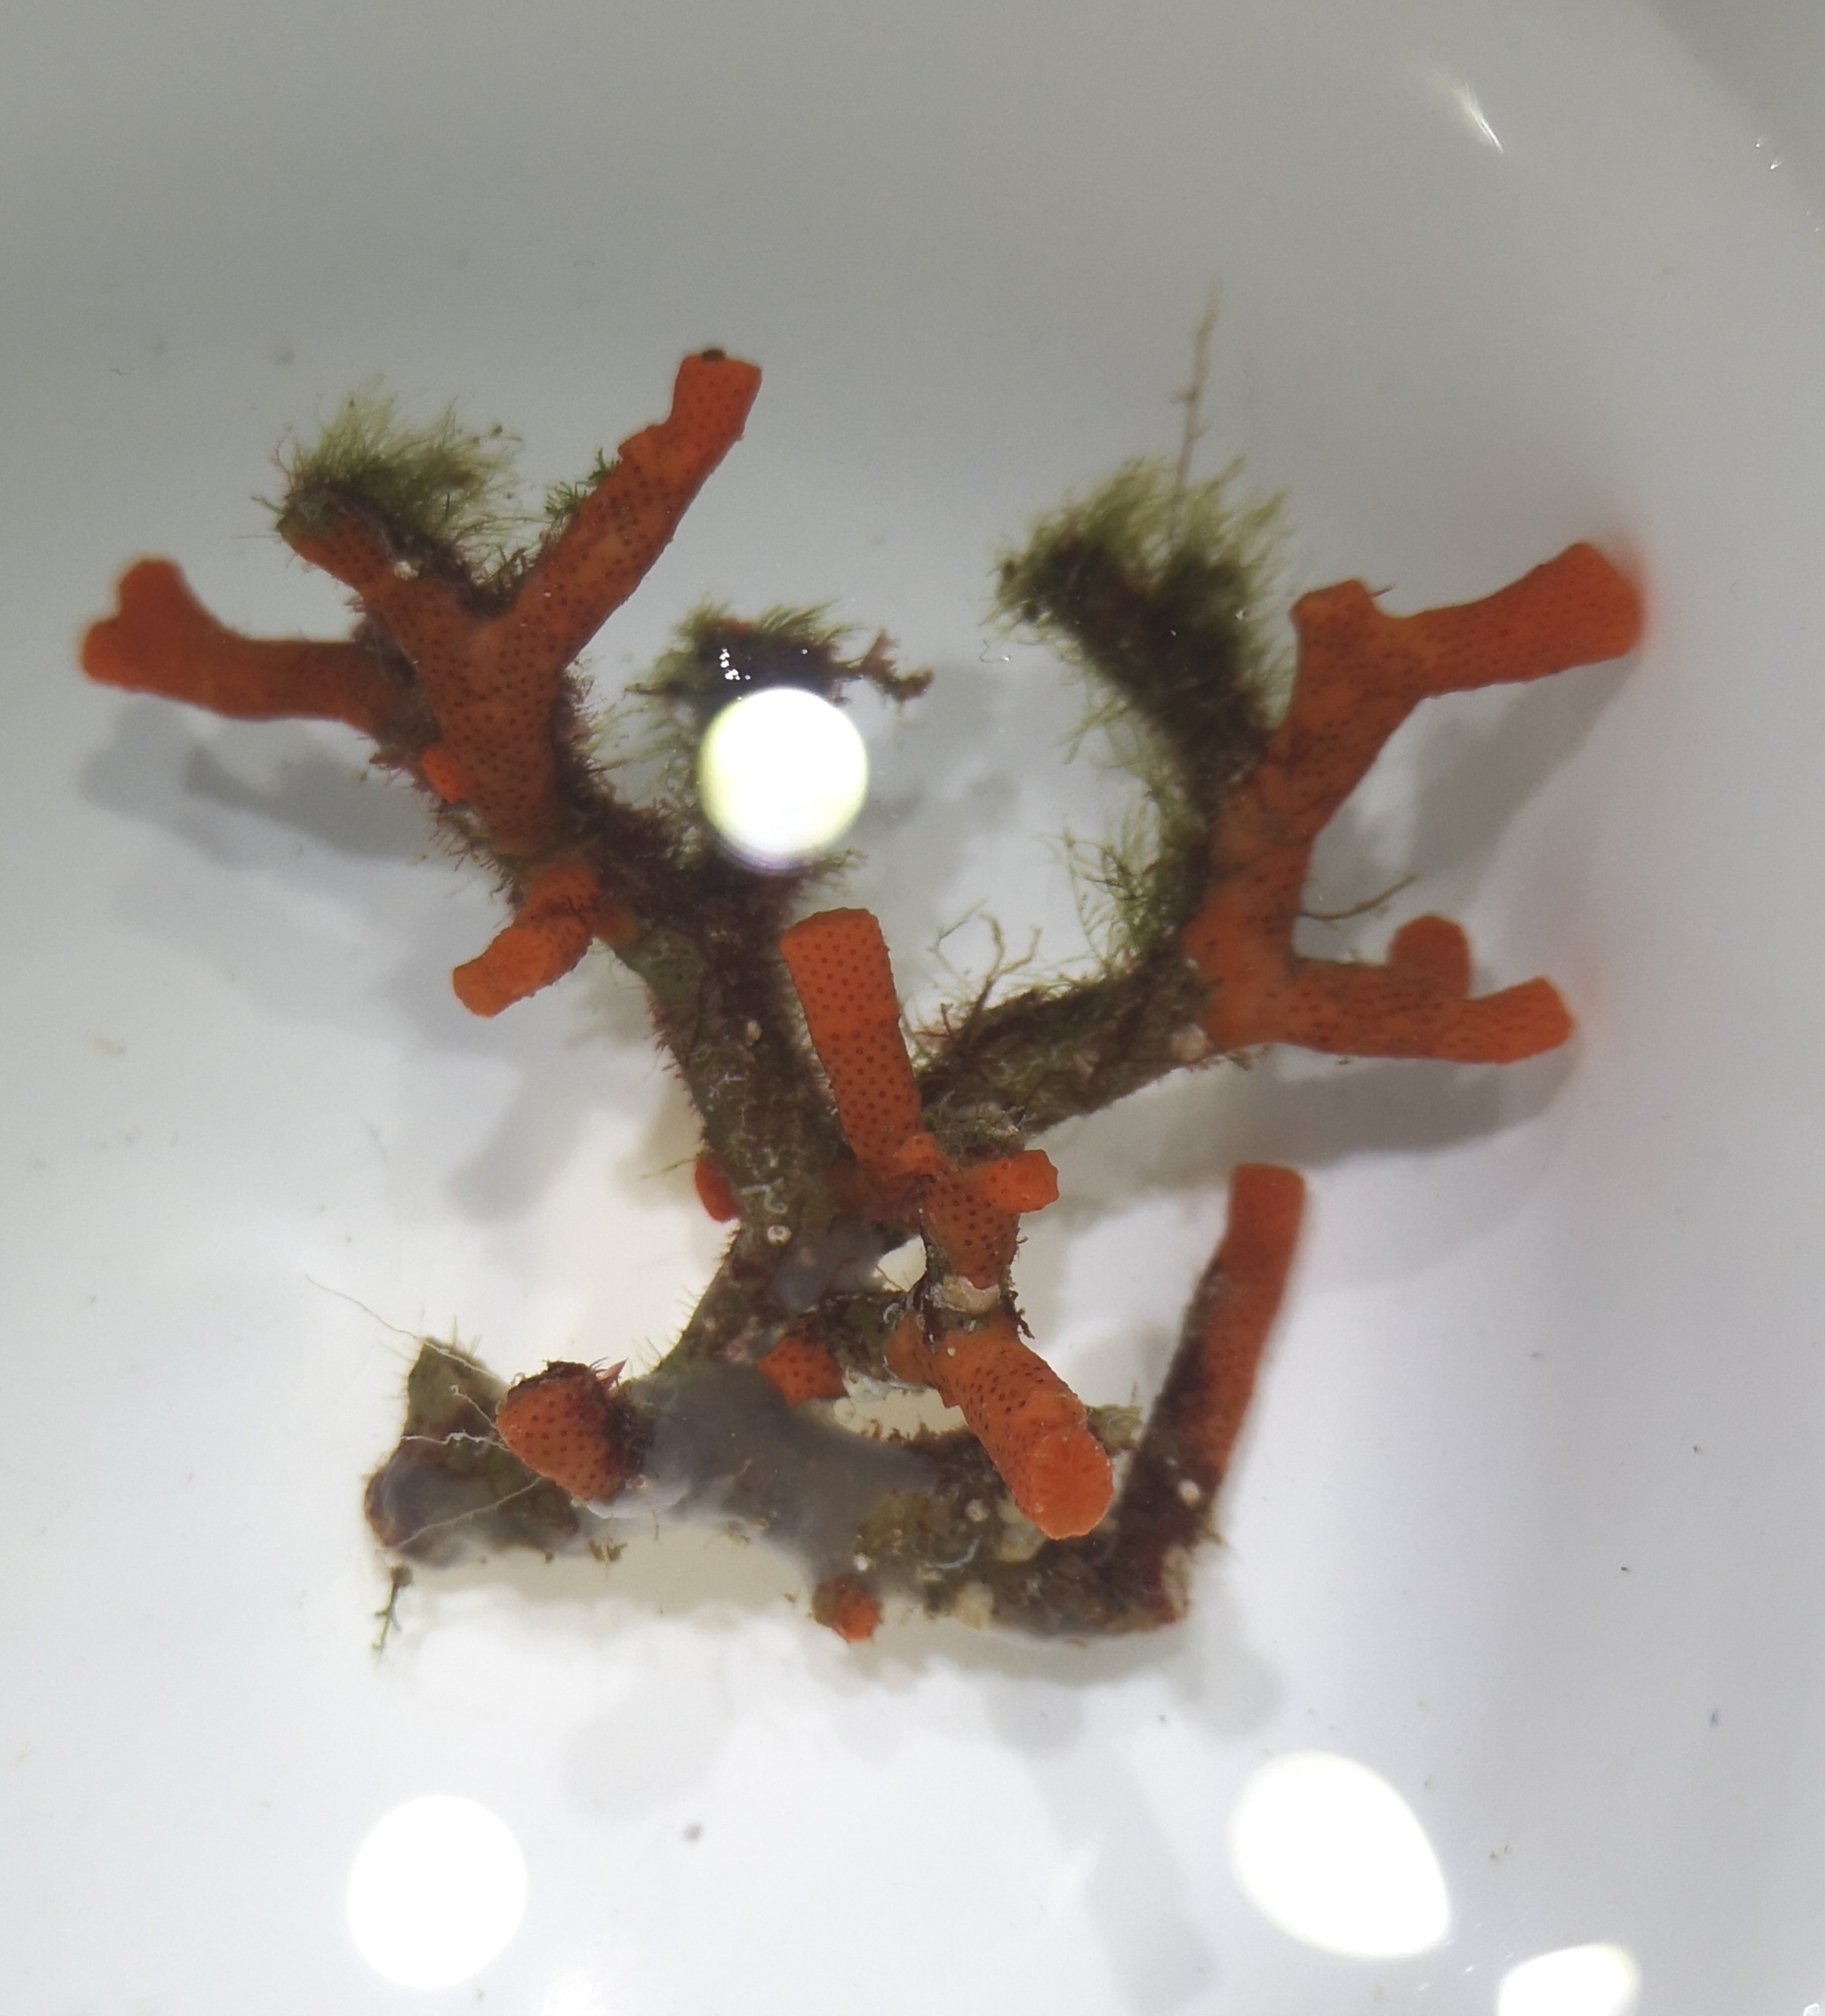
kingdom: Animalia
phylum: Bryozoa
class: Gymnolaemata
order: Cheilostomatida
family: Myriaporidae
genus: Myriapora
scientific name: Myriapora truncata
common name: False coral
